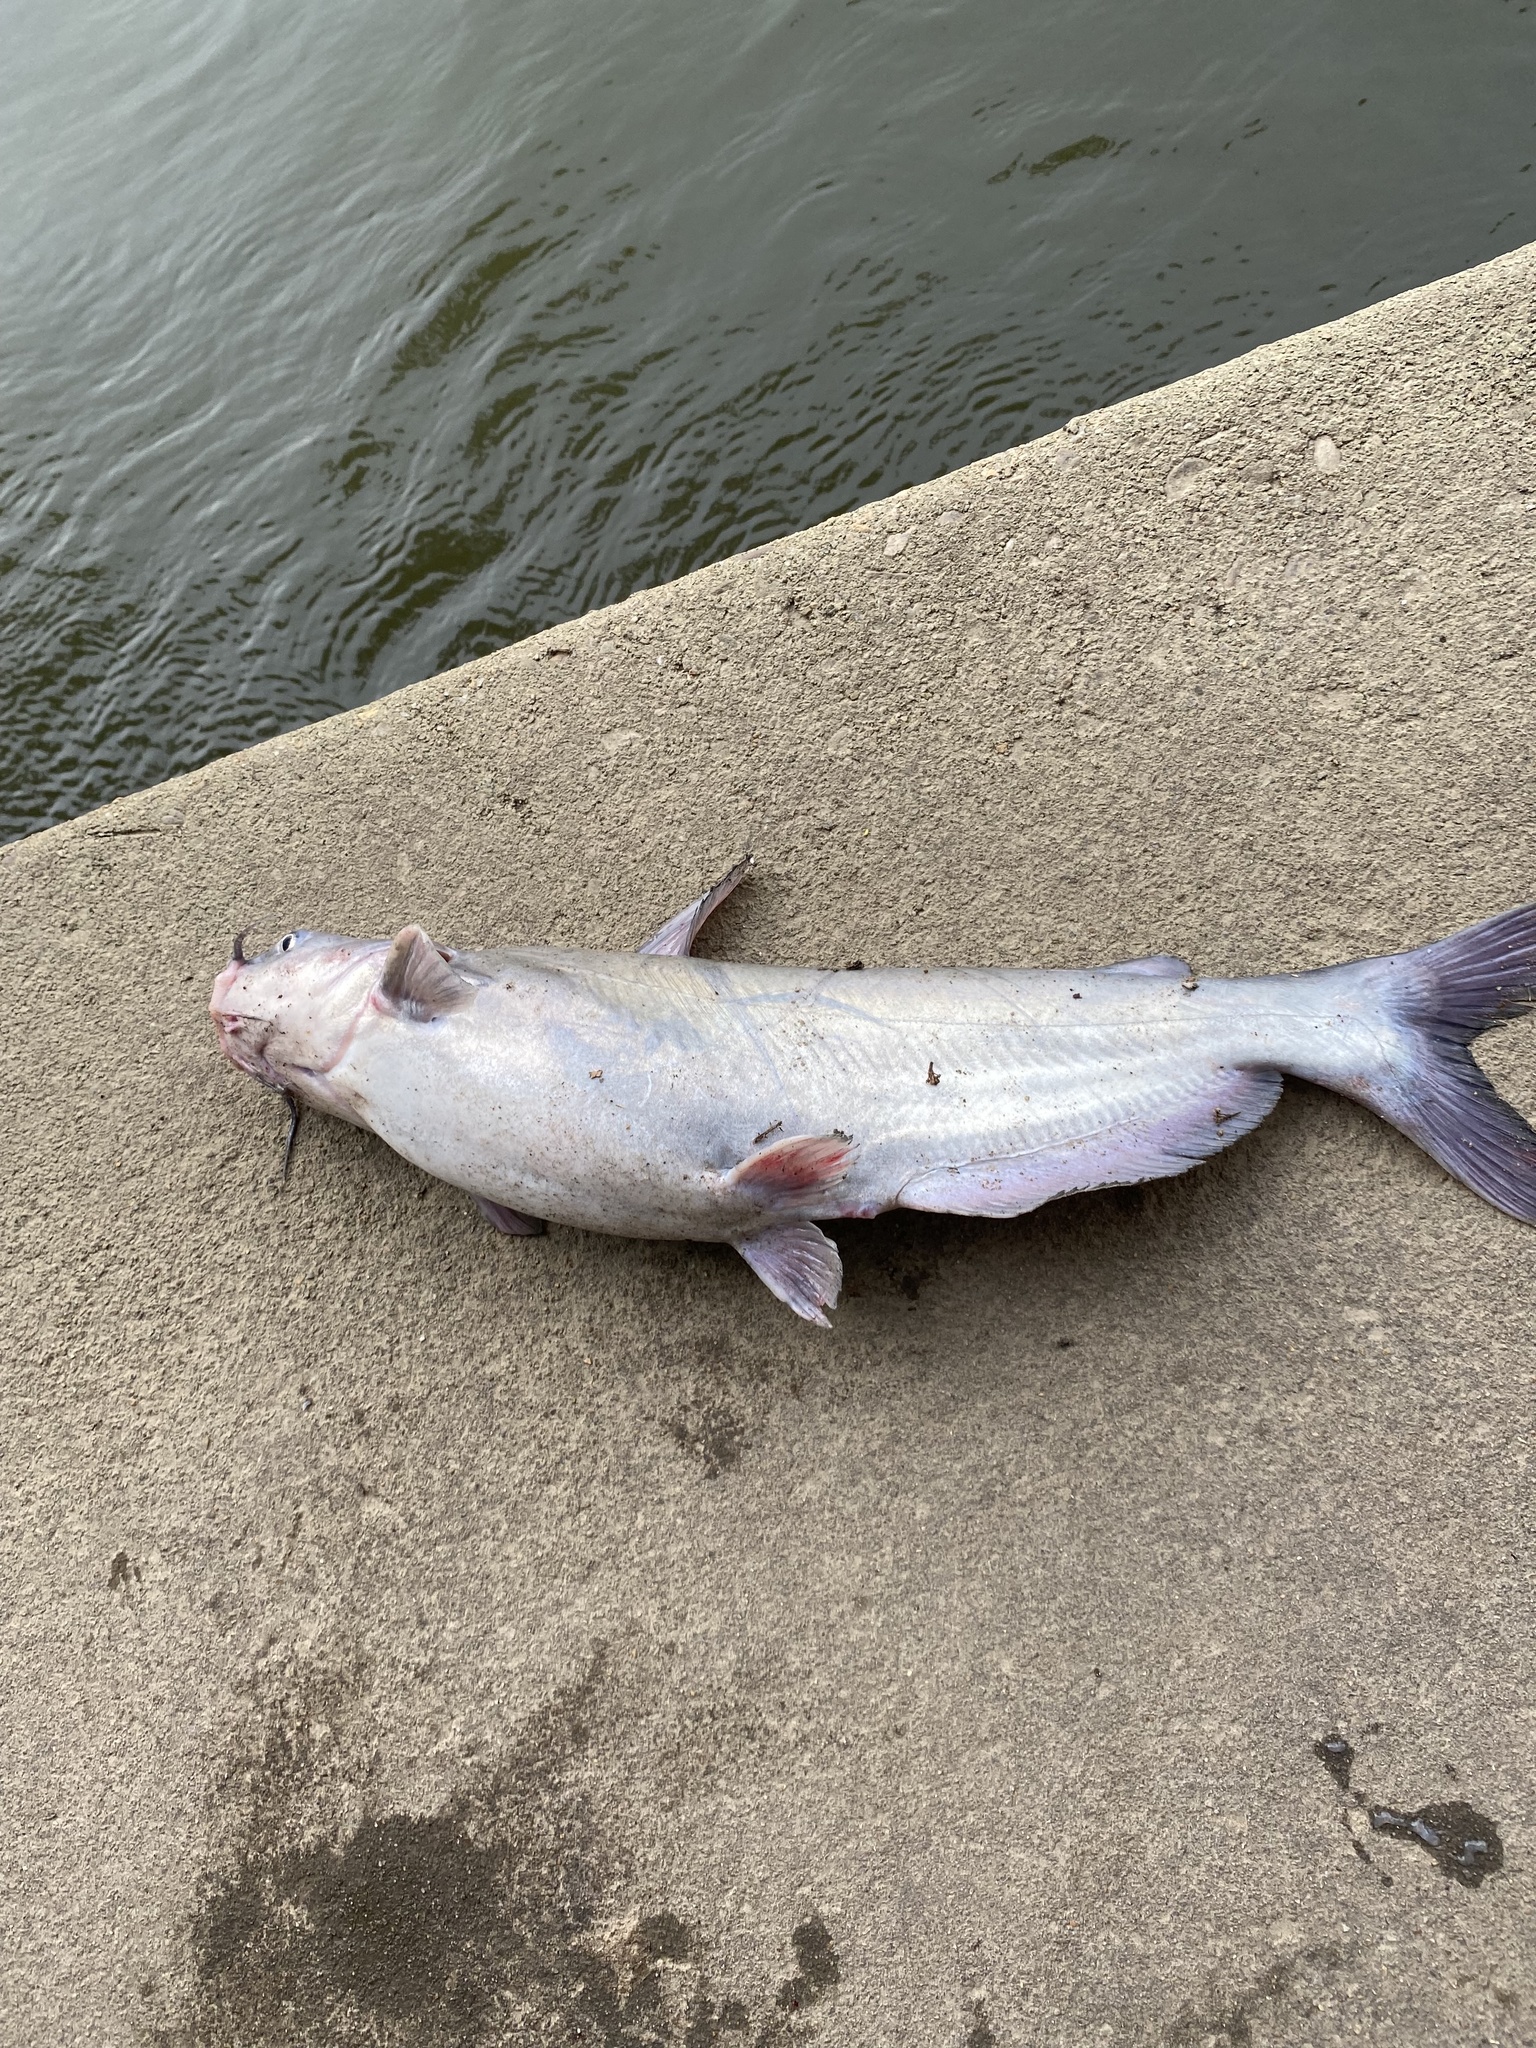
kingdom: Animalia
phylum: Chordata
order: Siluriformes
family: Ictaluridae
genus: Ictalurus
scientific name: Ictalurus furcatus
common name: Blue catfish
